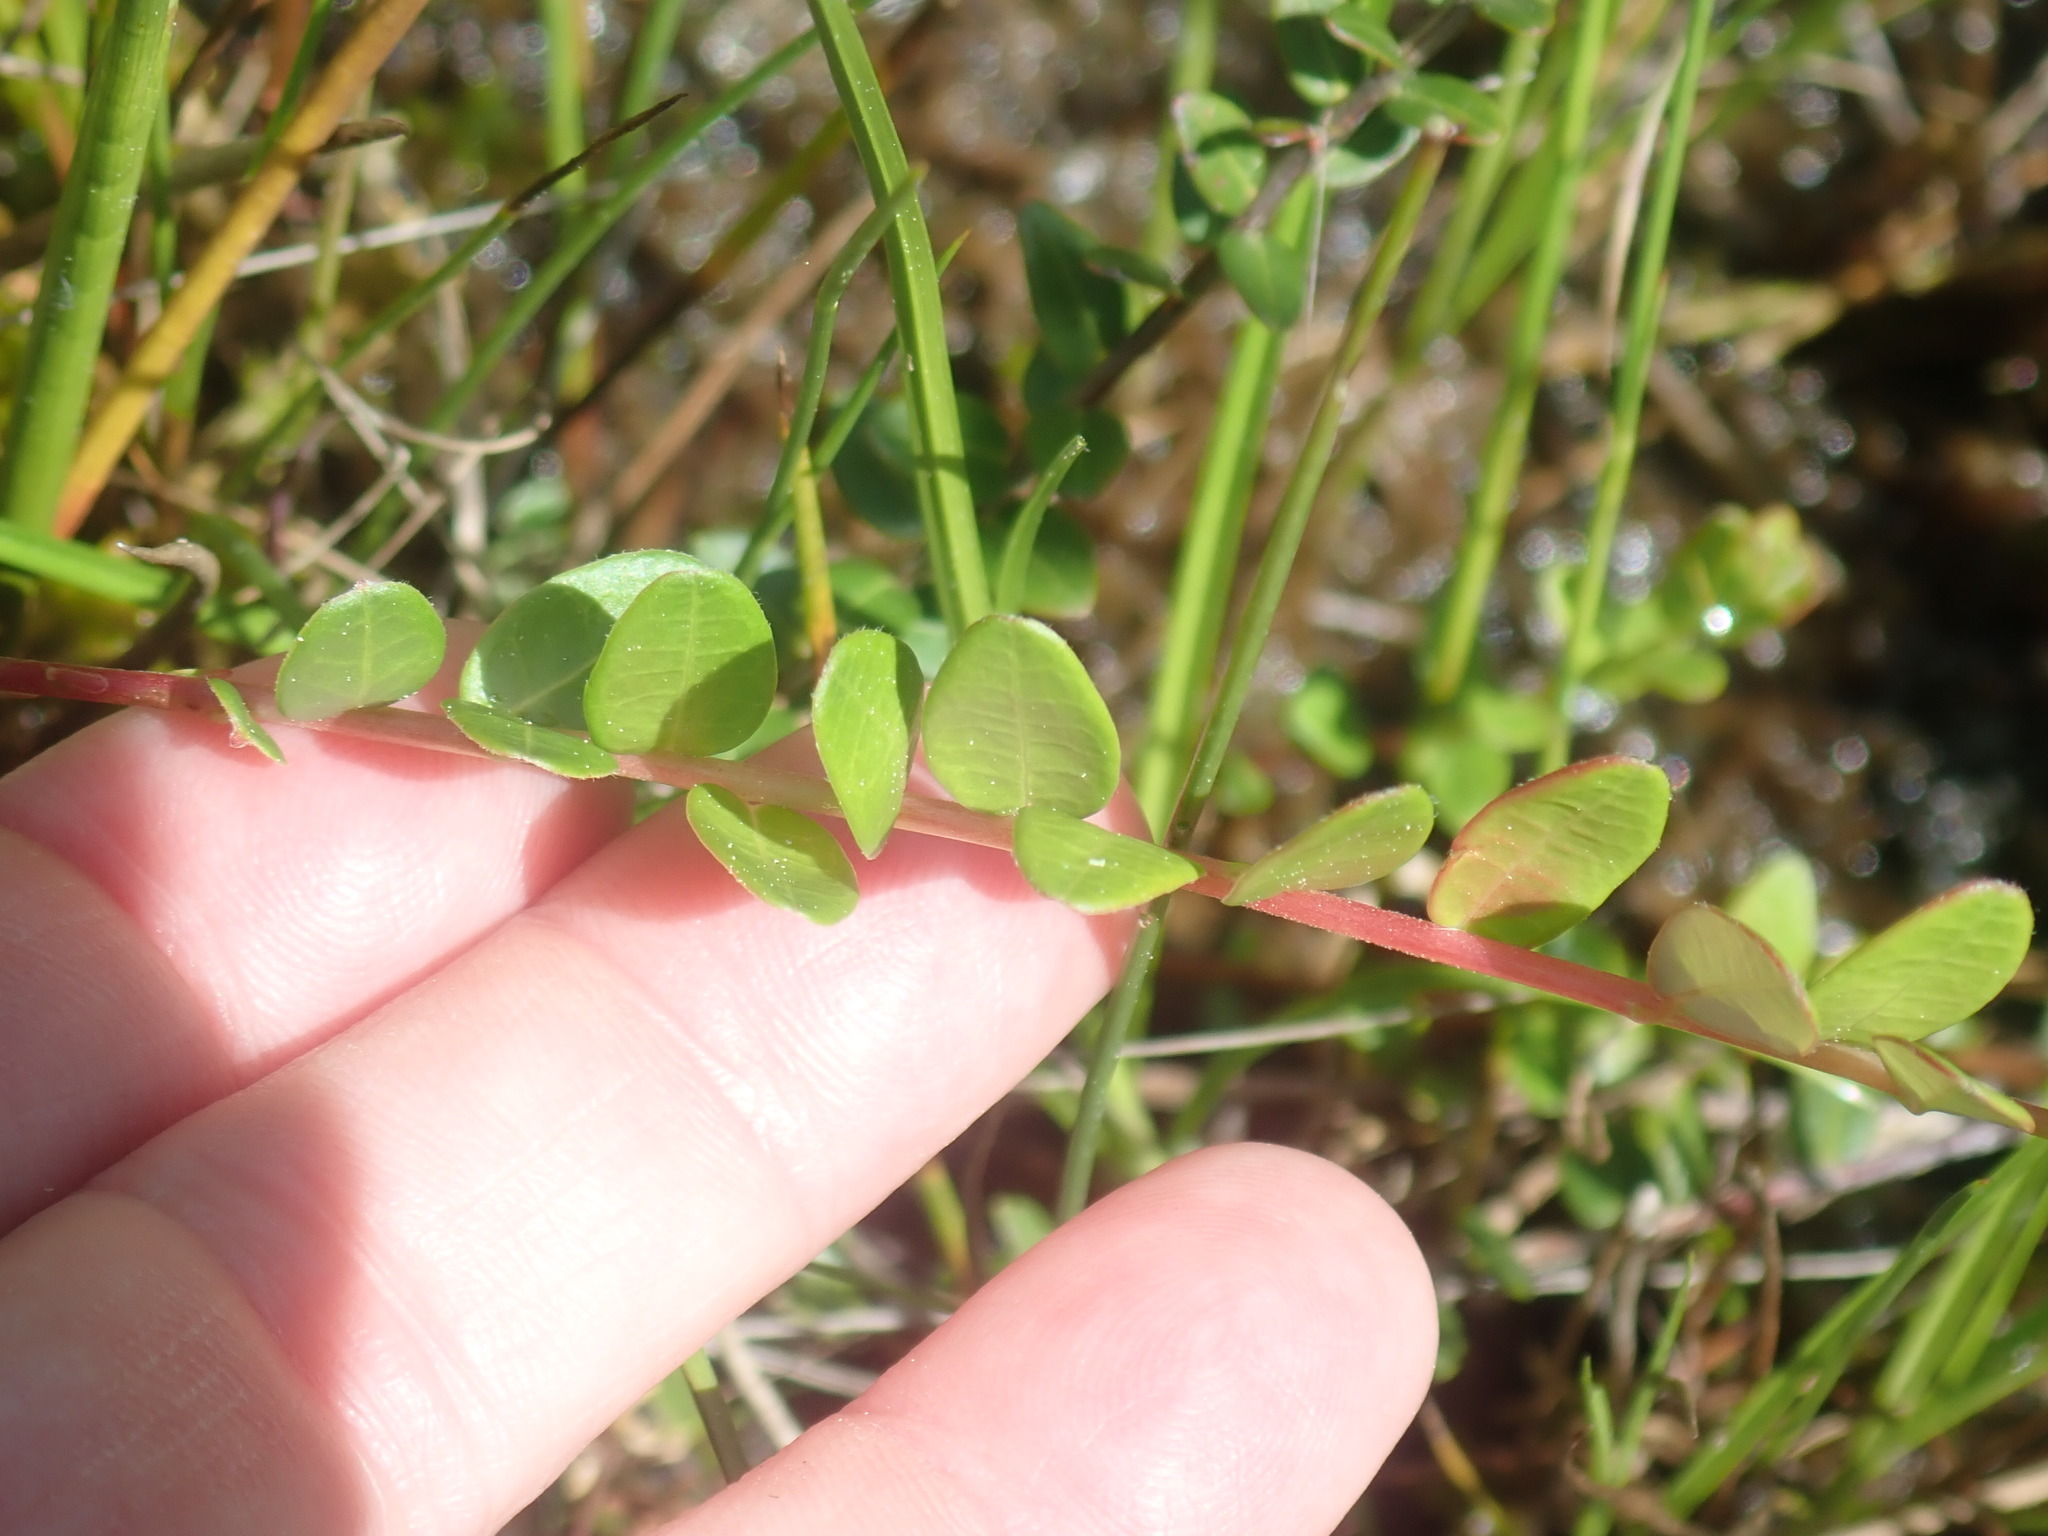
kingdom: Plantae
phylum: Tracheophyta
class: Magnoliopsida
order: Ericales
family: Ericaceae
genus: Vaccinium
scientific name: Vaccinium macrocarpon
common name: American cranberry
